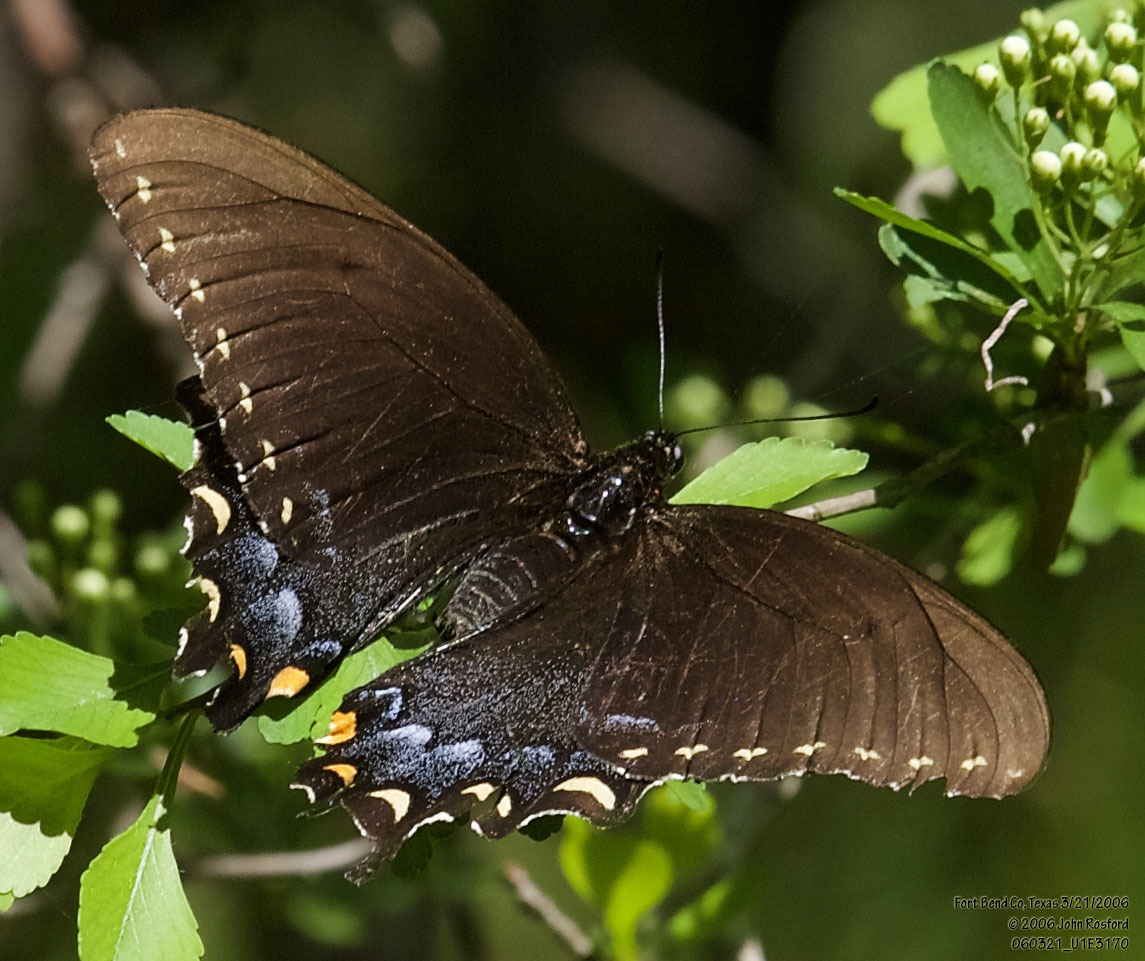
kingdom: Animalia
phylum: Arthropoda
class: Insecta
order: Lepidoptera
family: Papilionidae
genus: Papilio
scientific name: Papilio troilus
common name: Spicebush swallowtail
